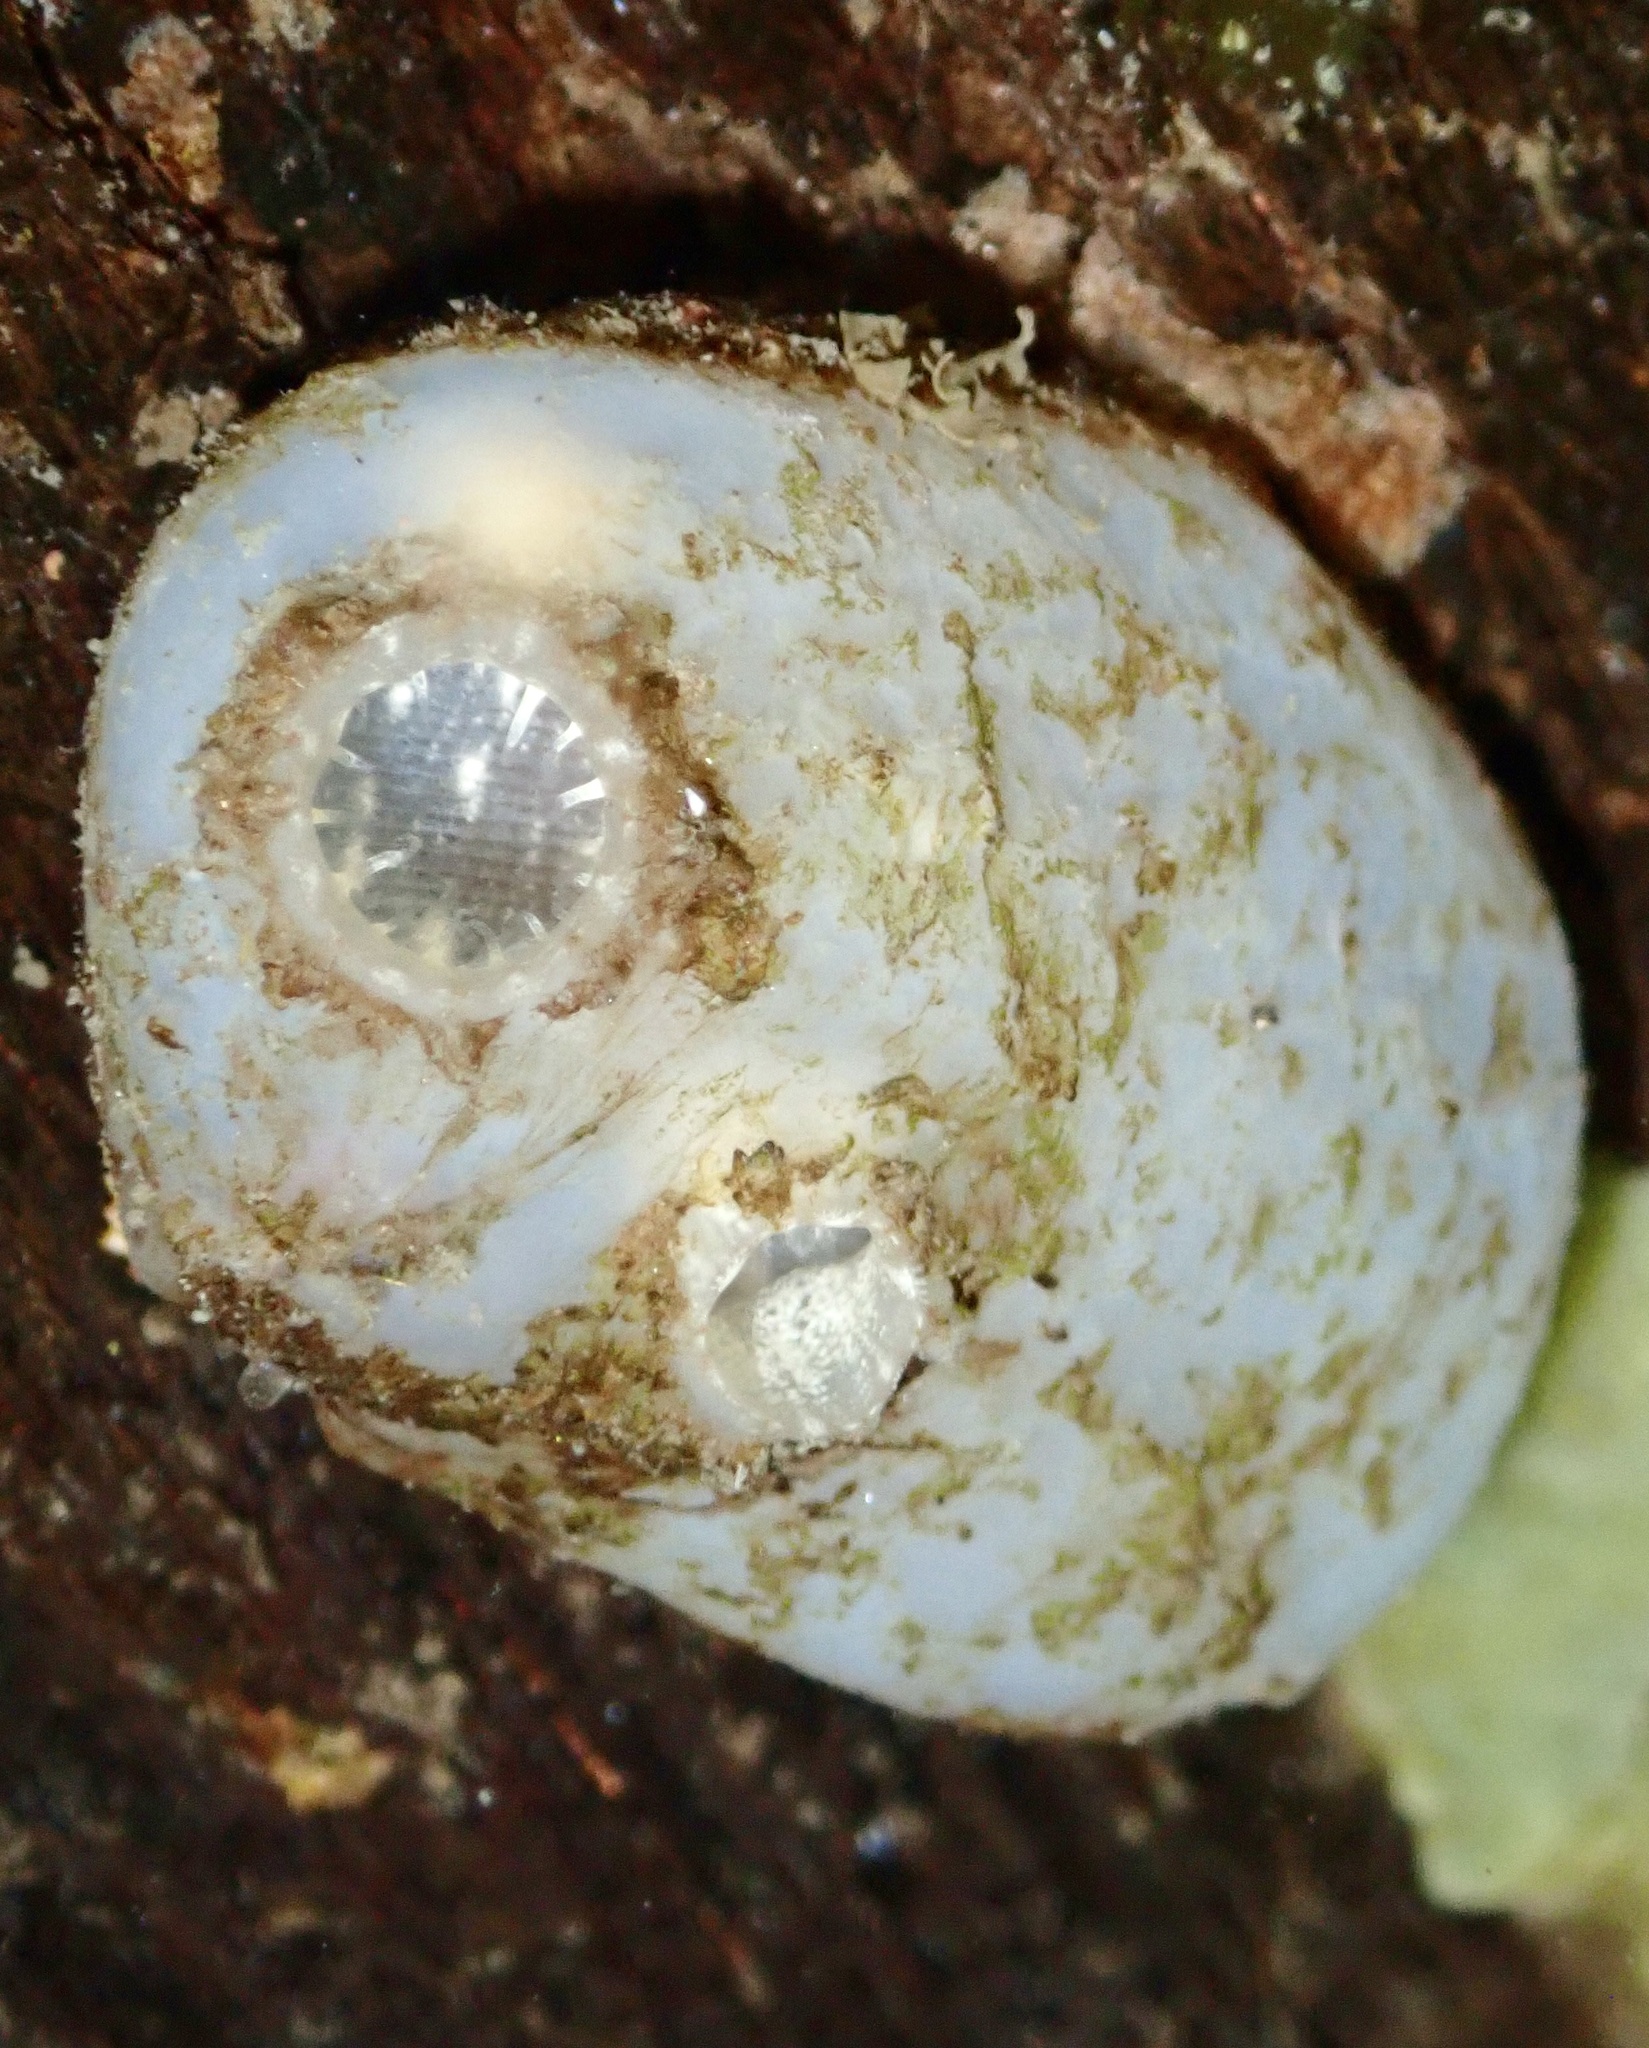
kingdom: Animalia
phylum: Chordata
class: Ascidiacea
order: Phlebobranchia
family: Ascidiidae
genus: Ascidiella
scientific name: Ascidiella aspersa
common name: Dirty sea-squirt
